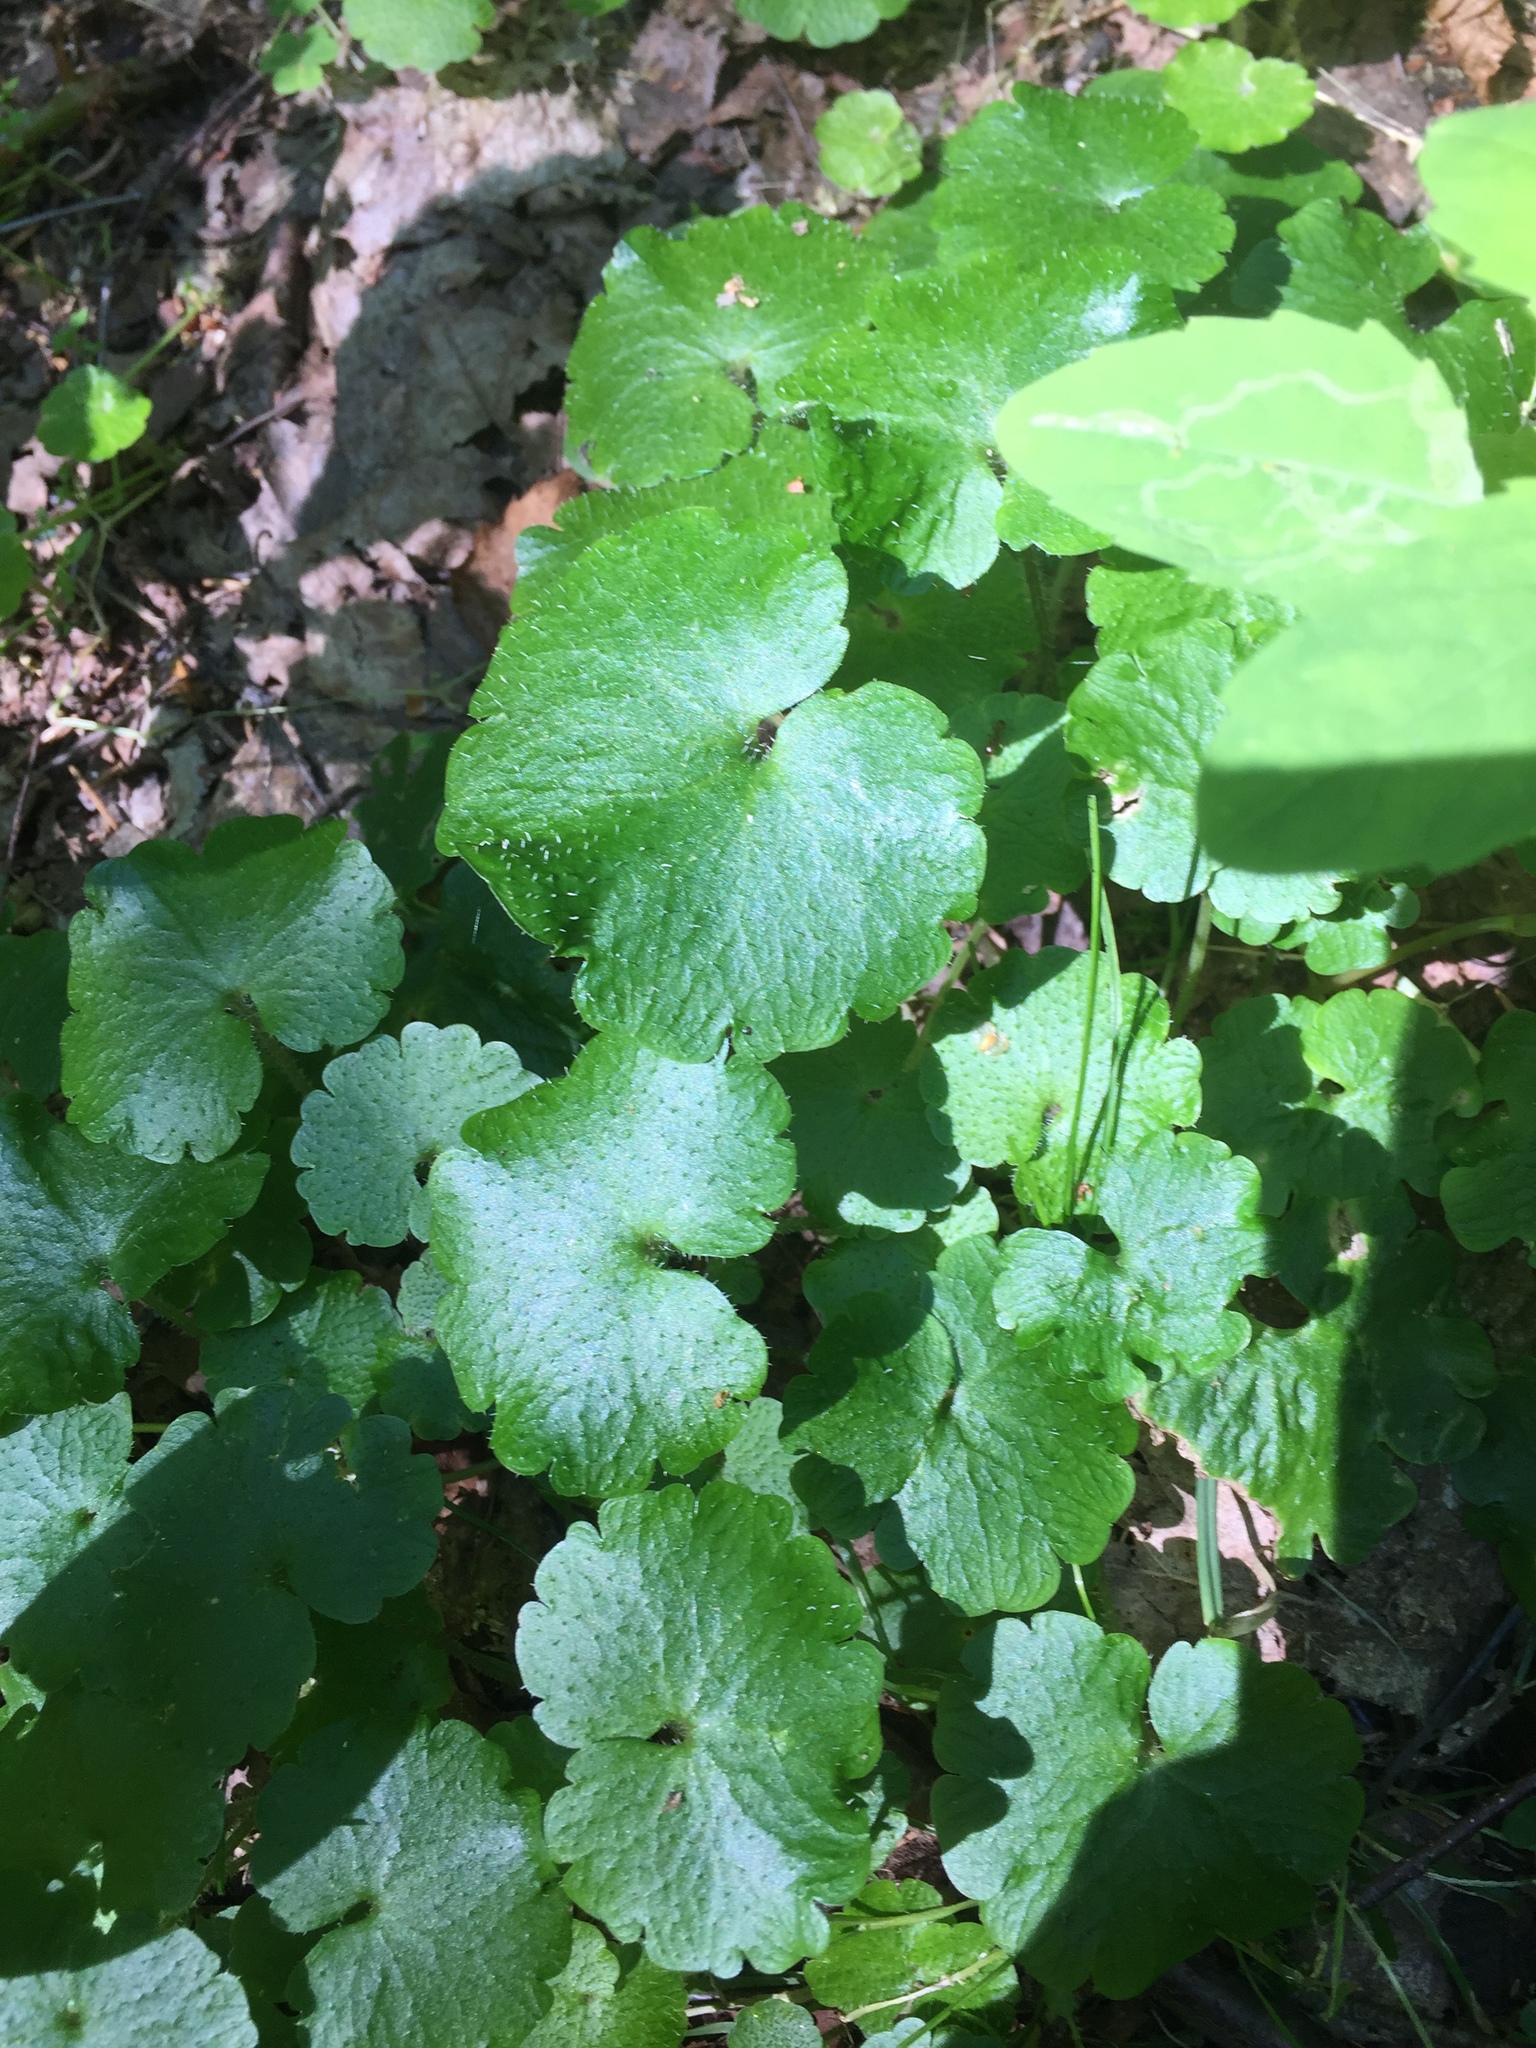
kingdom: Plantae
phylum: Tracheophyta
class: Magnoliopsida
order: Saxifragales
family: Saxifragaceae
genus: Chrysosplenium
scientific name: Chrysosplenium alternifolium
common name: Alternate-leaved golden-saxifrage
